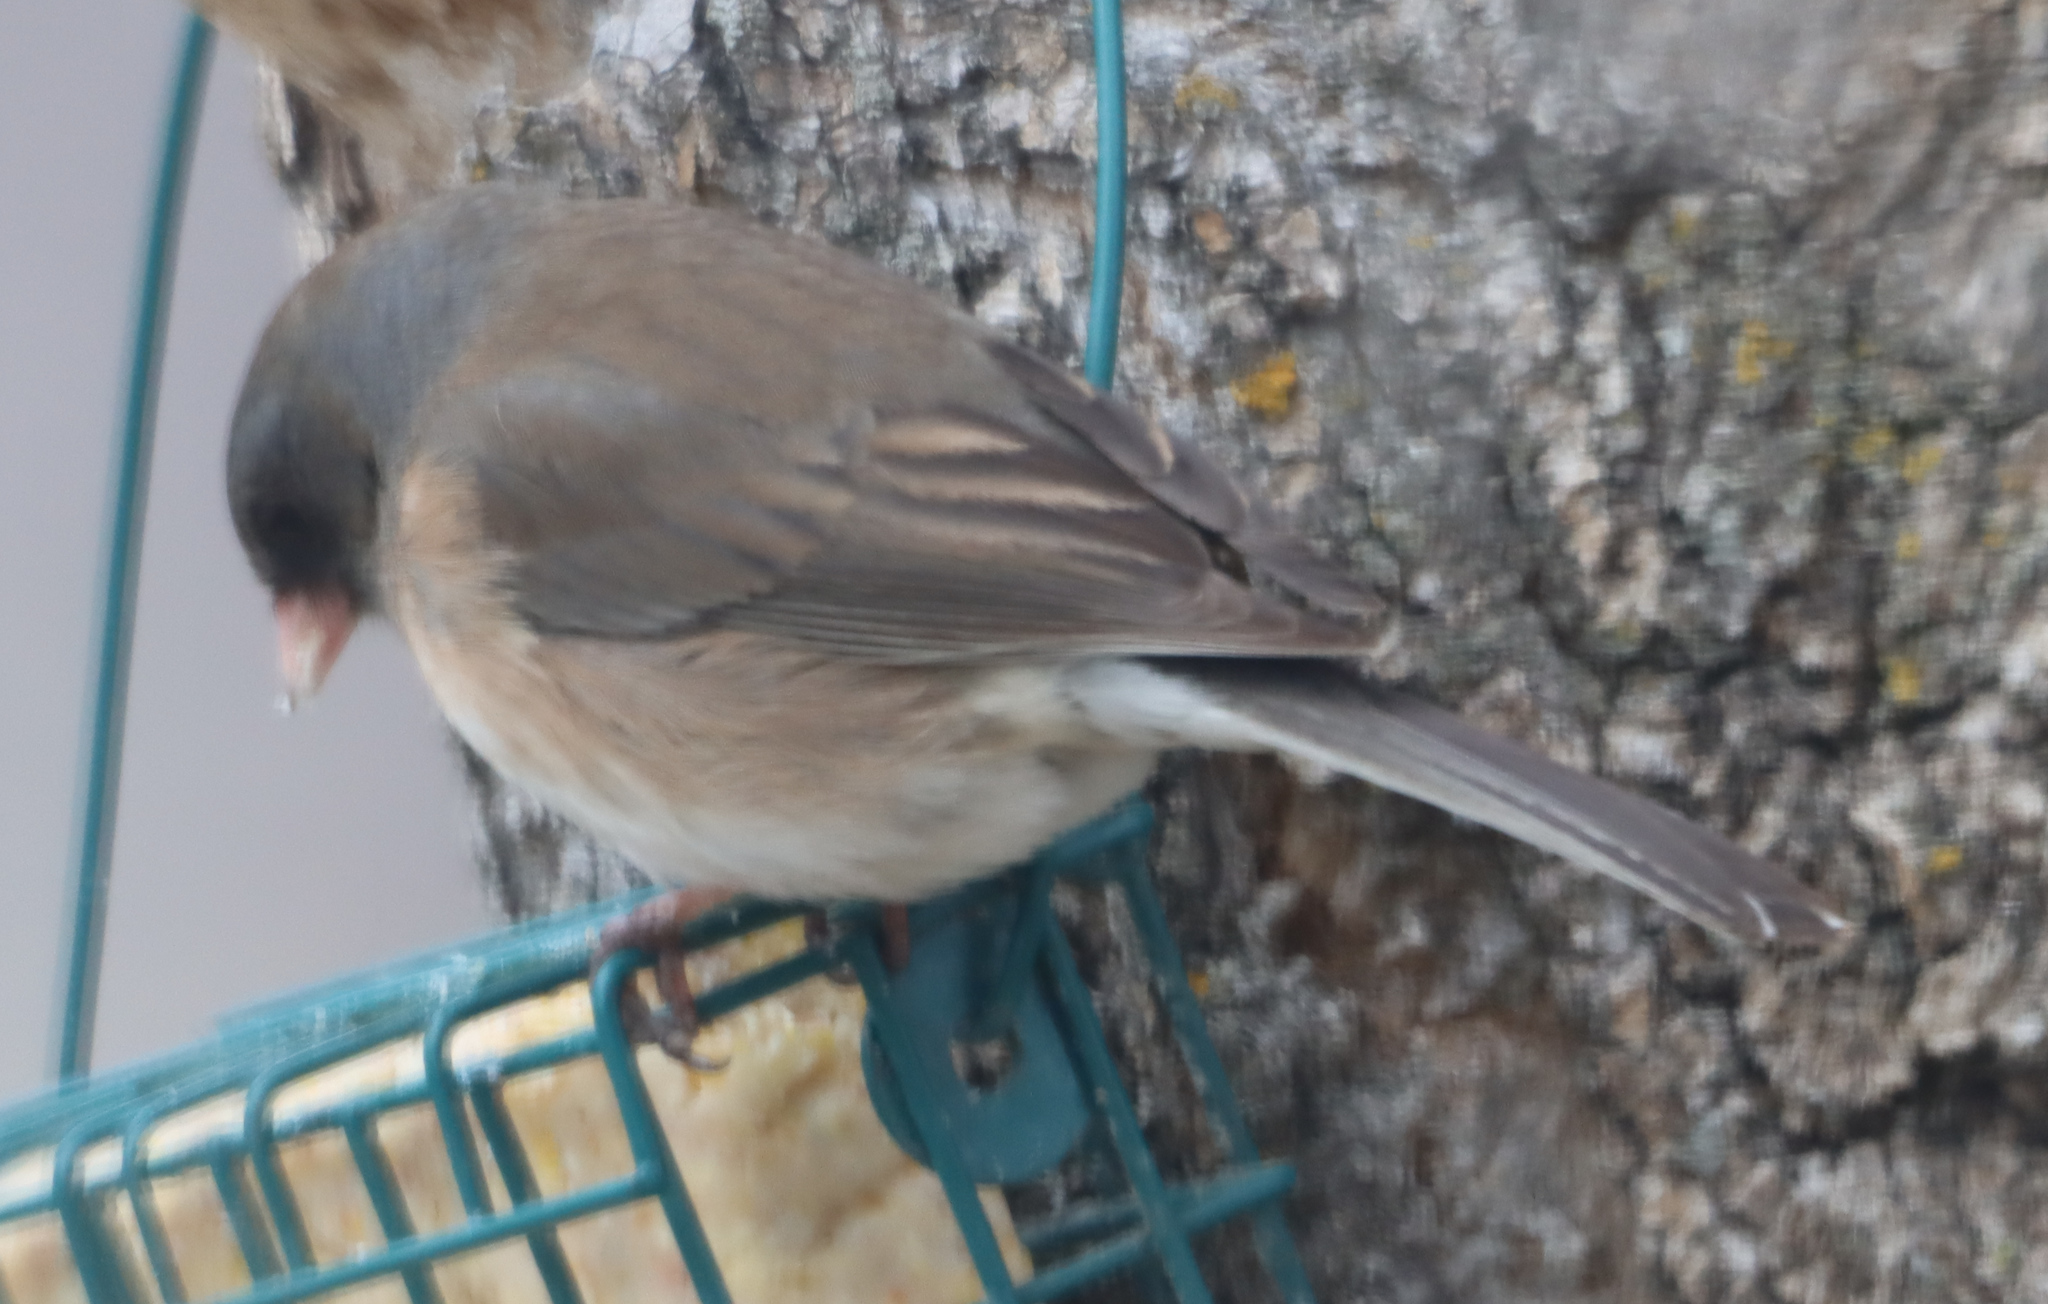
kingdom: Animalia
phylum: Chordata
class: Aves
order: Passeriformes
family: Passerellidae
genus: Junco
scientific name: Junco hyemalis
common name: Dark-eyed junco
